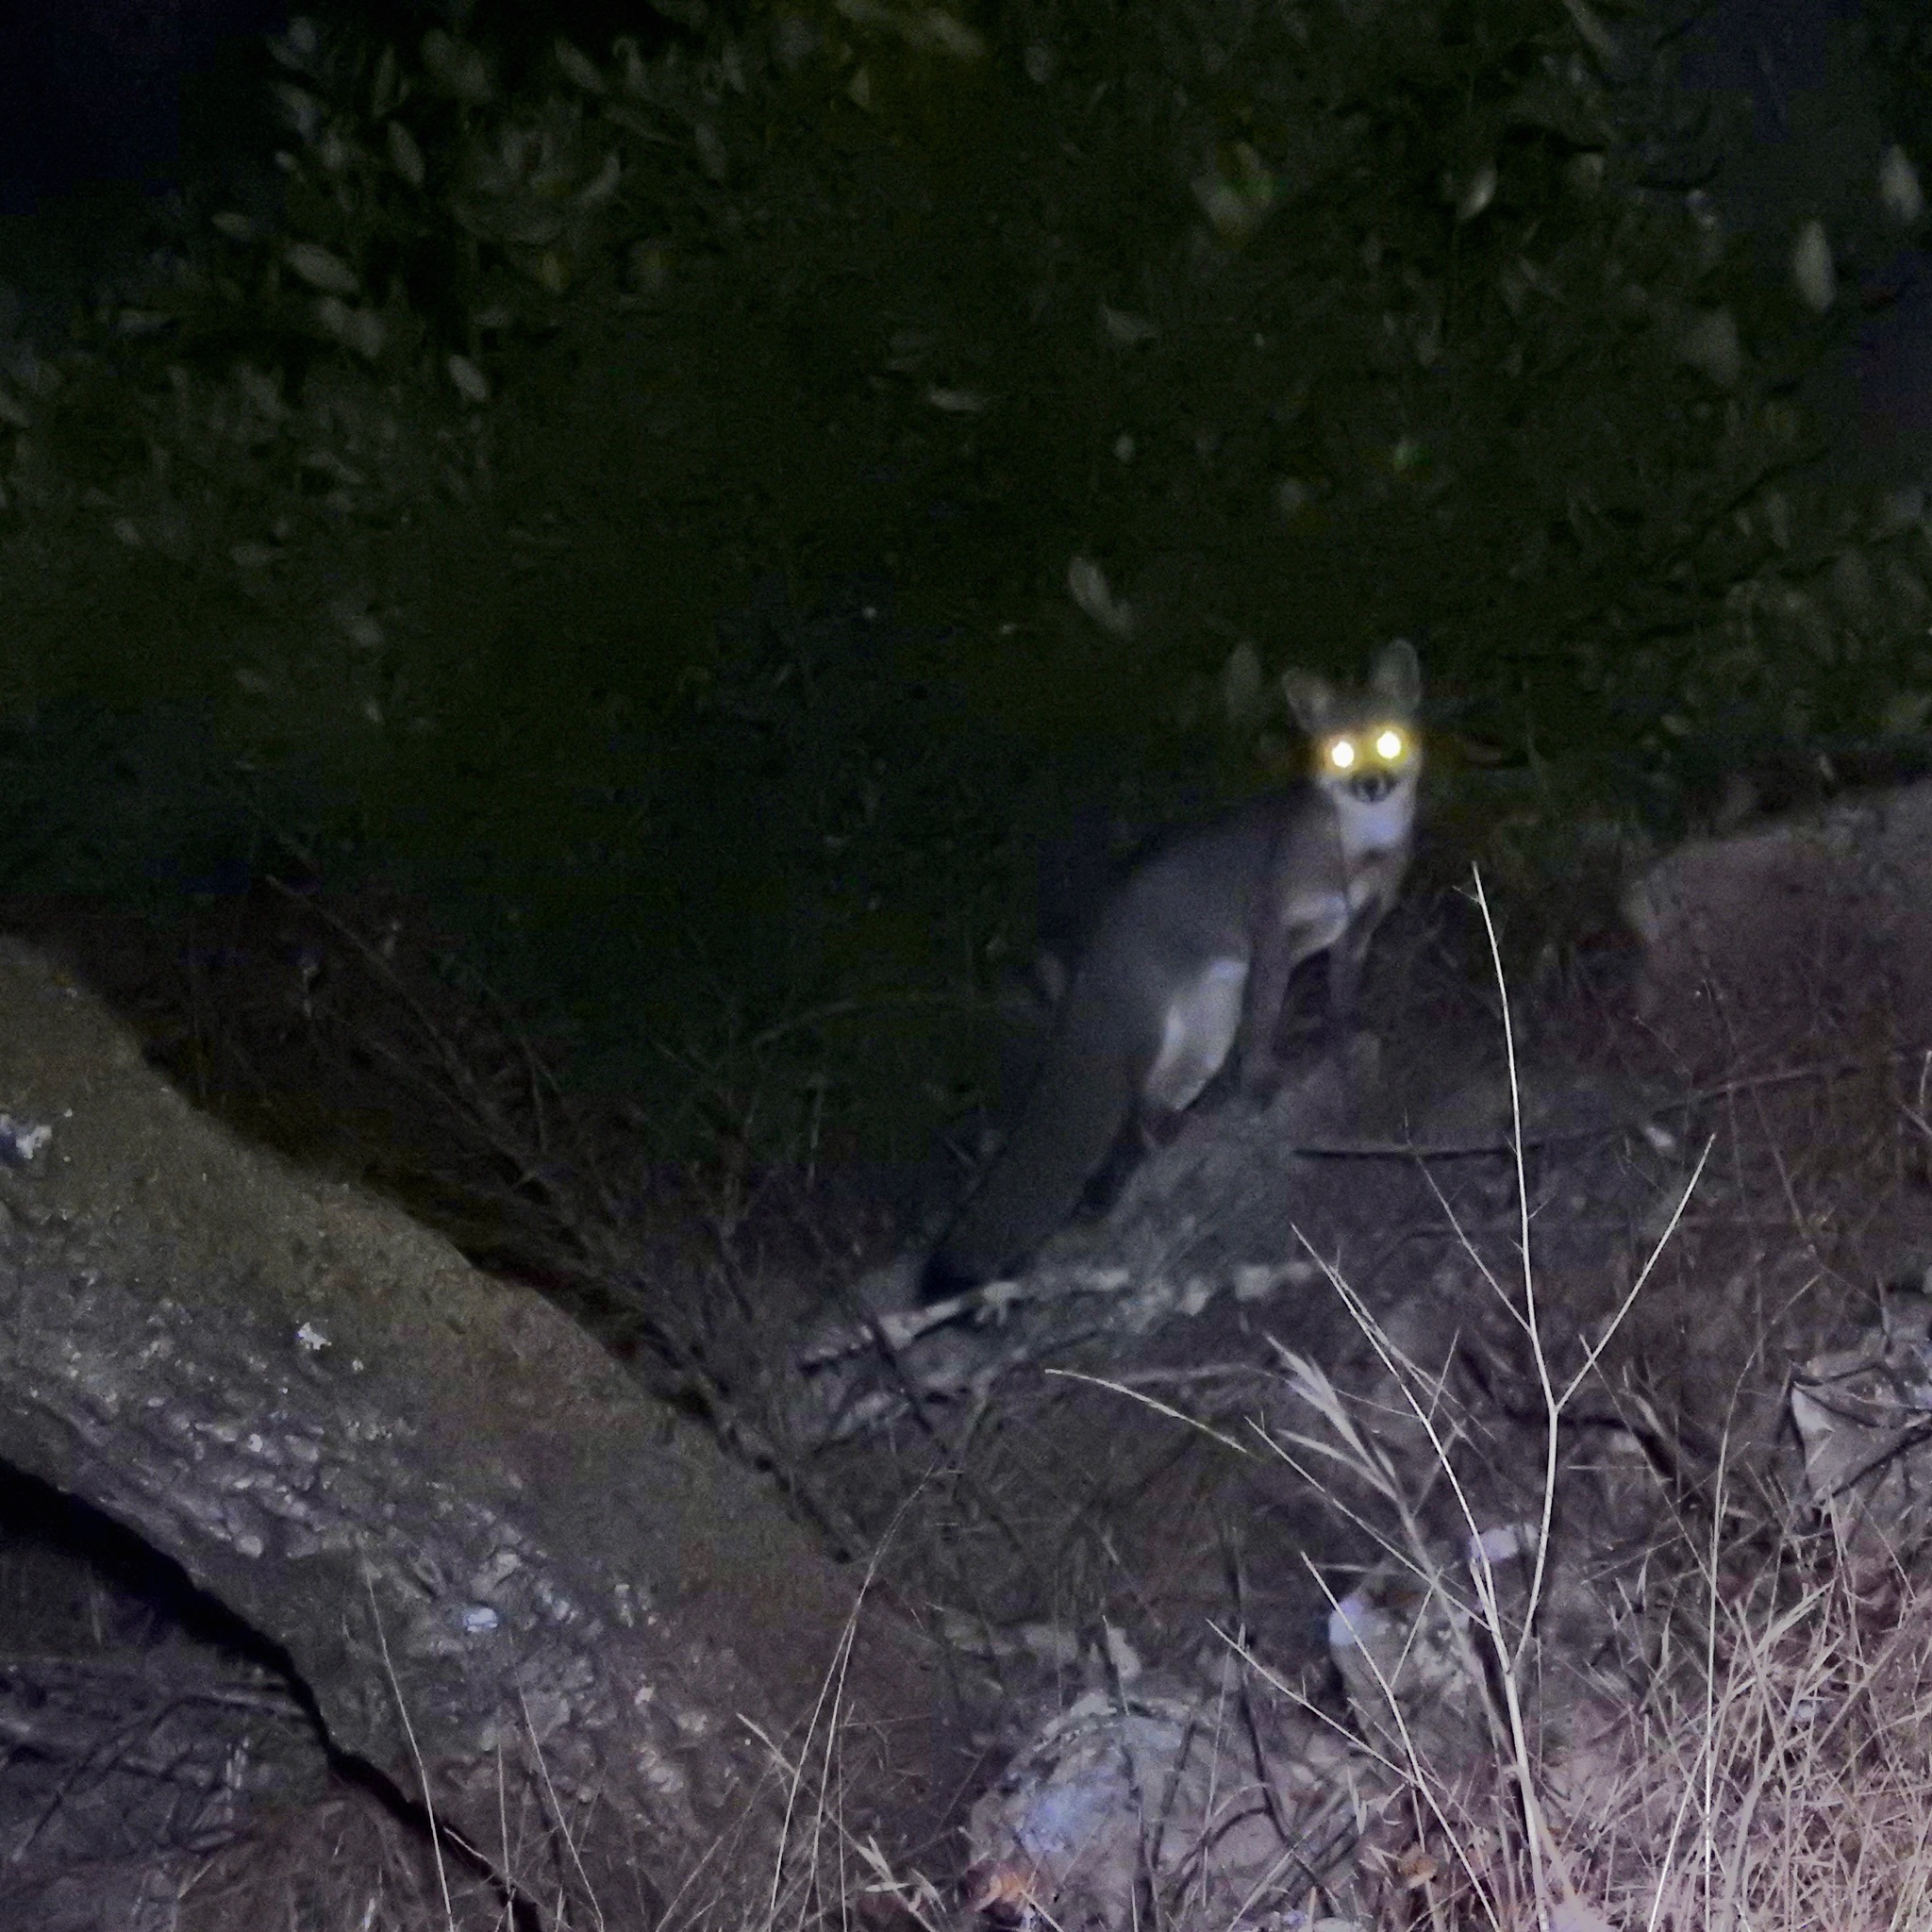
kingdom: Animalia
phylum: Chordata
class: Mammalia
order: Carnivora
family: Canidae
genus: Urocyon
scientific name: Urocyon cinereoargenteus
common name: Gray fox
